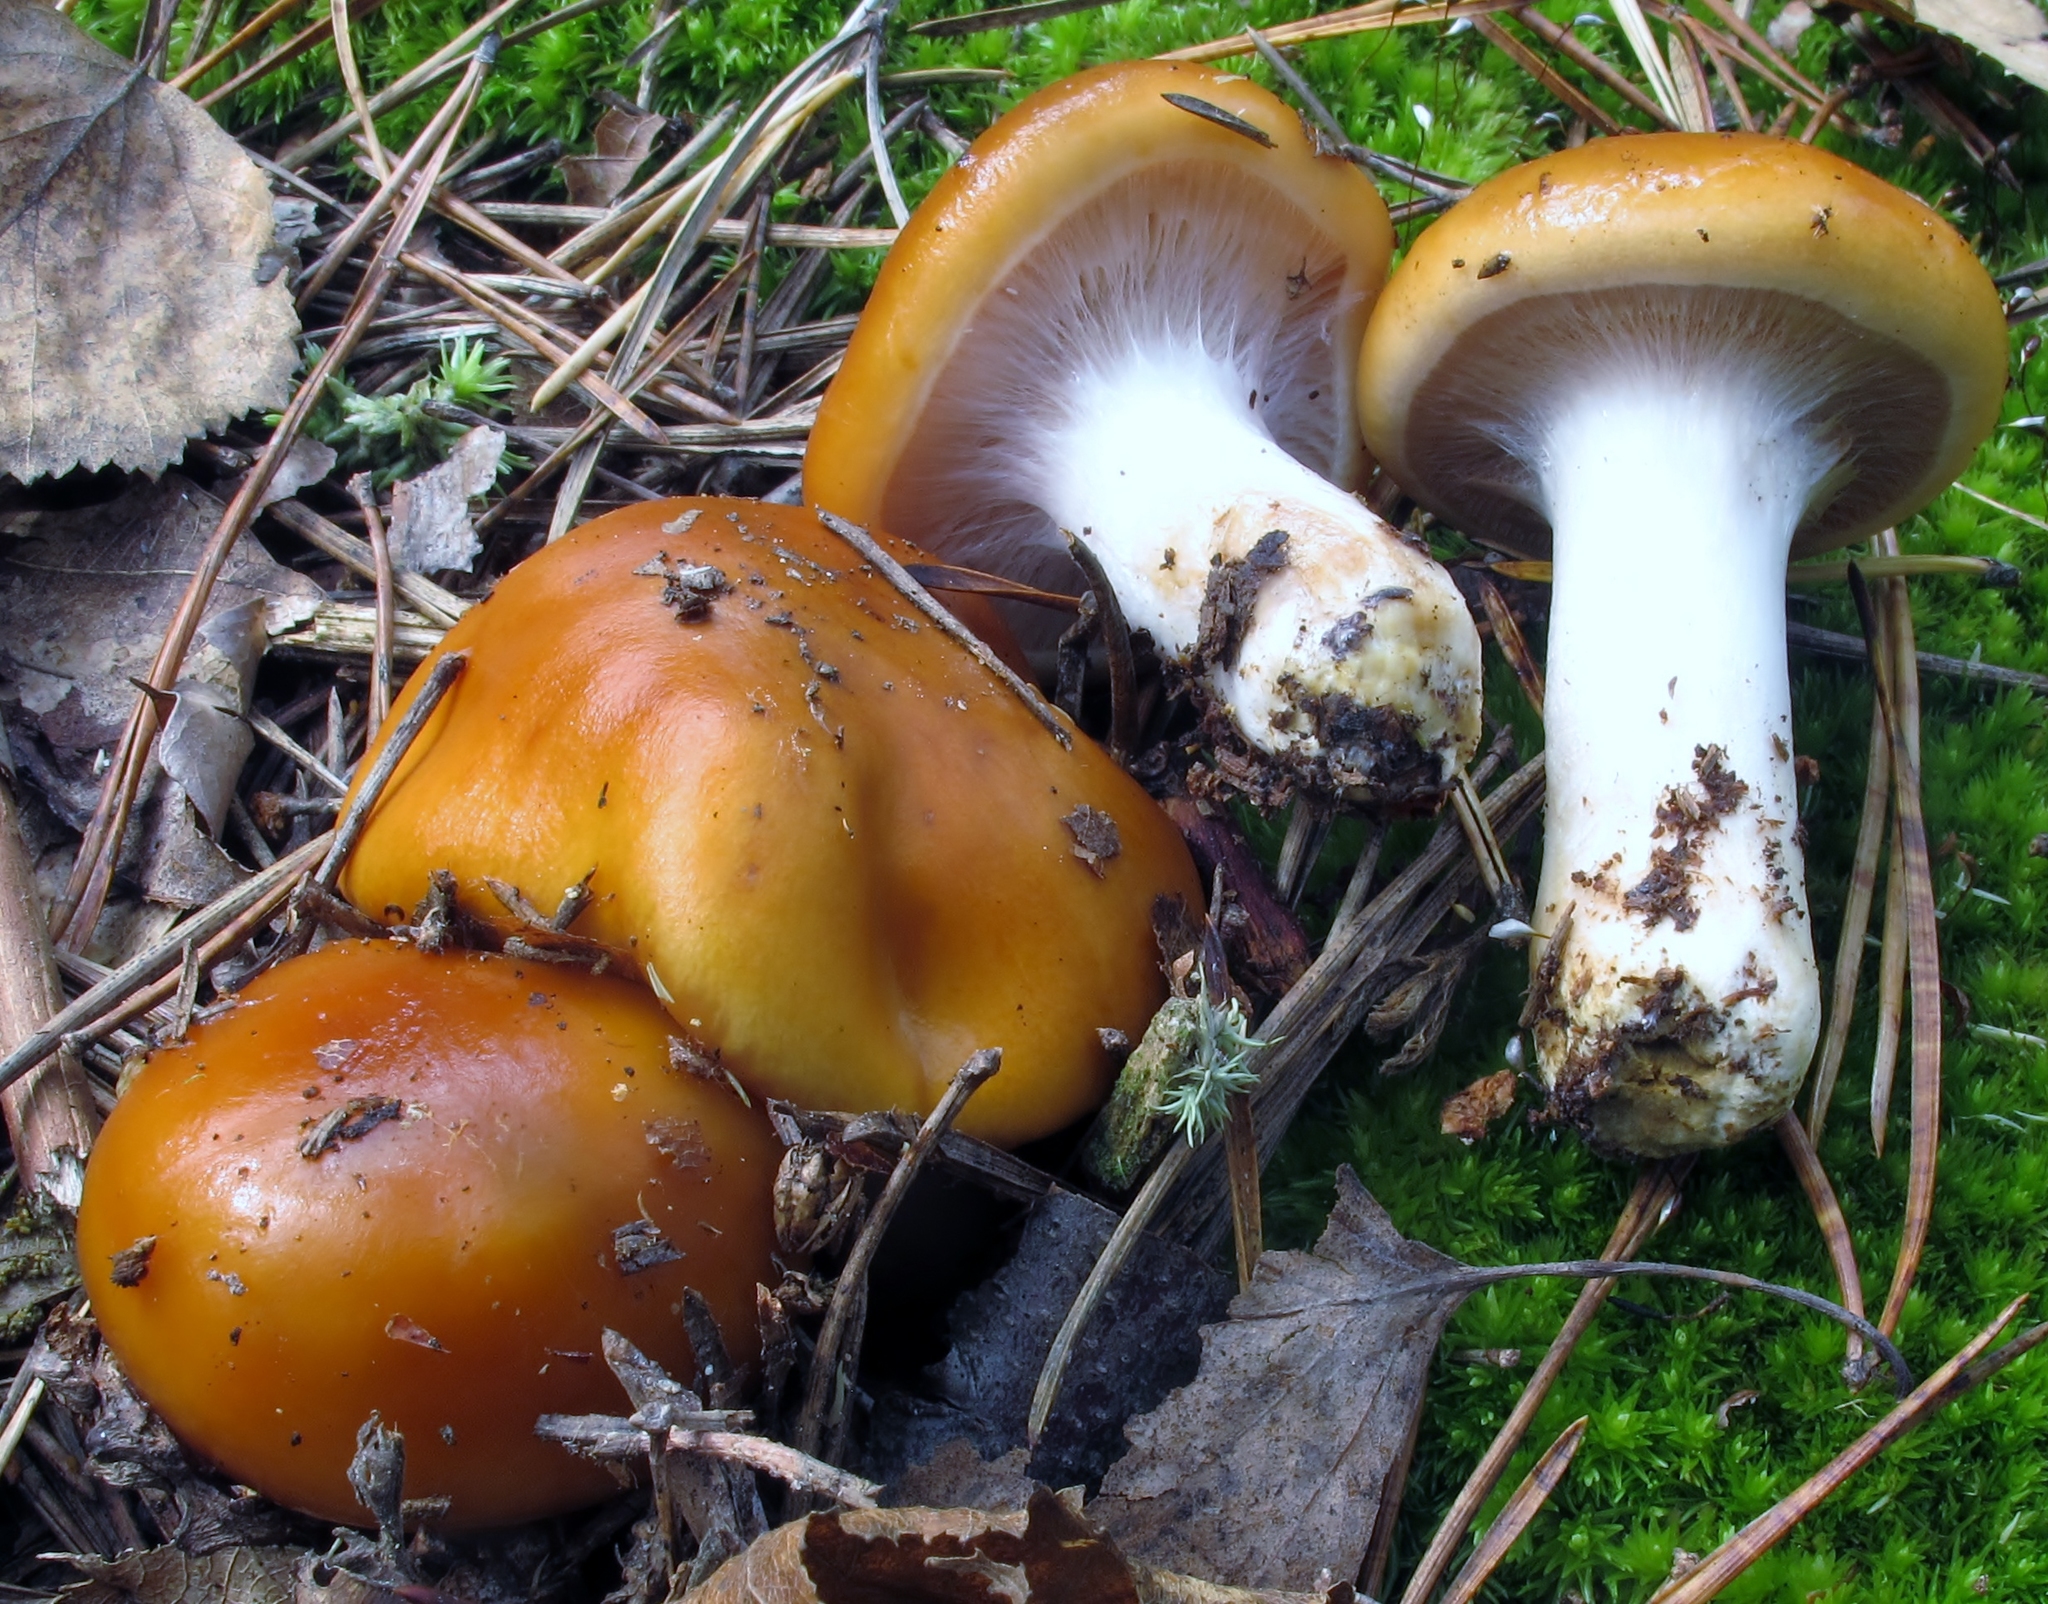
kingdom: Fungi
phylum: Basidiomycota
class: Agaricomycetes
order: Agaricales
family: Cortinariaceae
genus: Cortinarius
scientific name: Cortinarius mucosus
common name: Orange webcap
